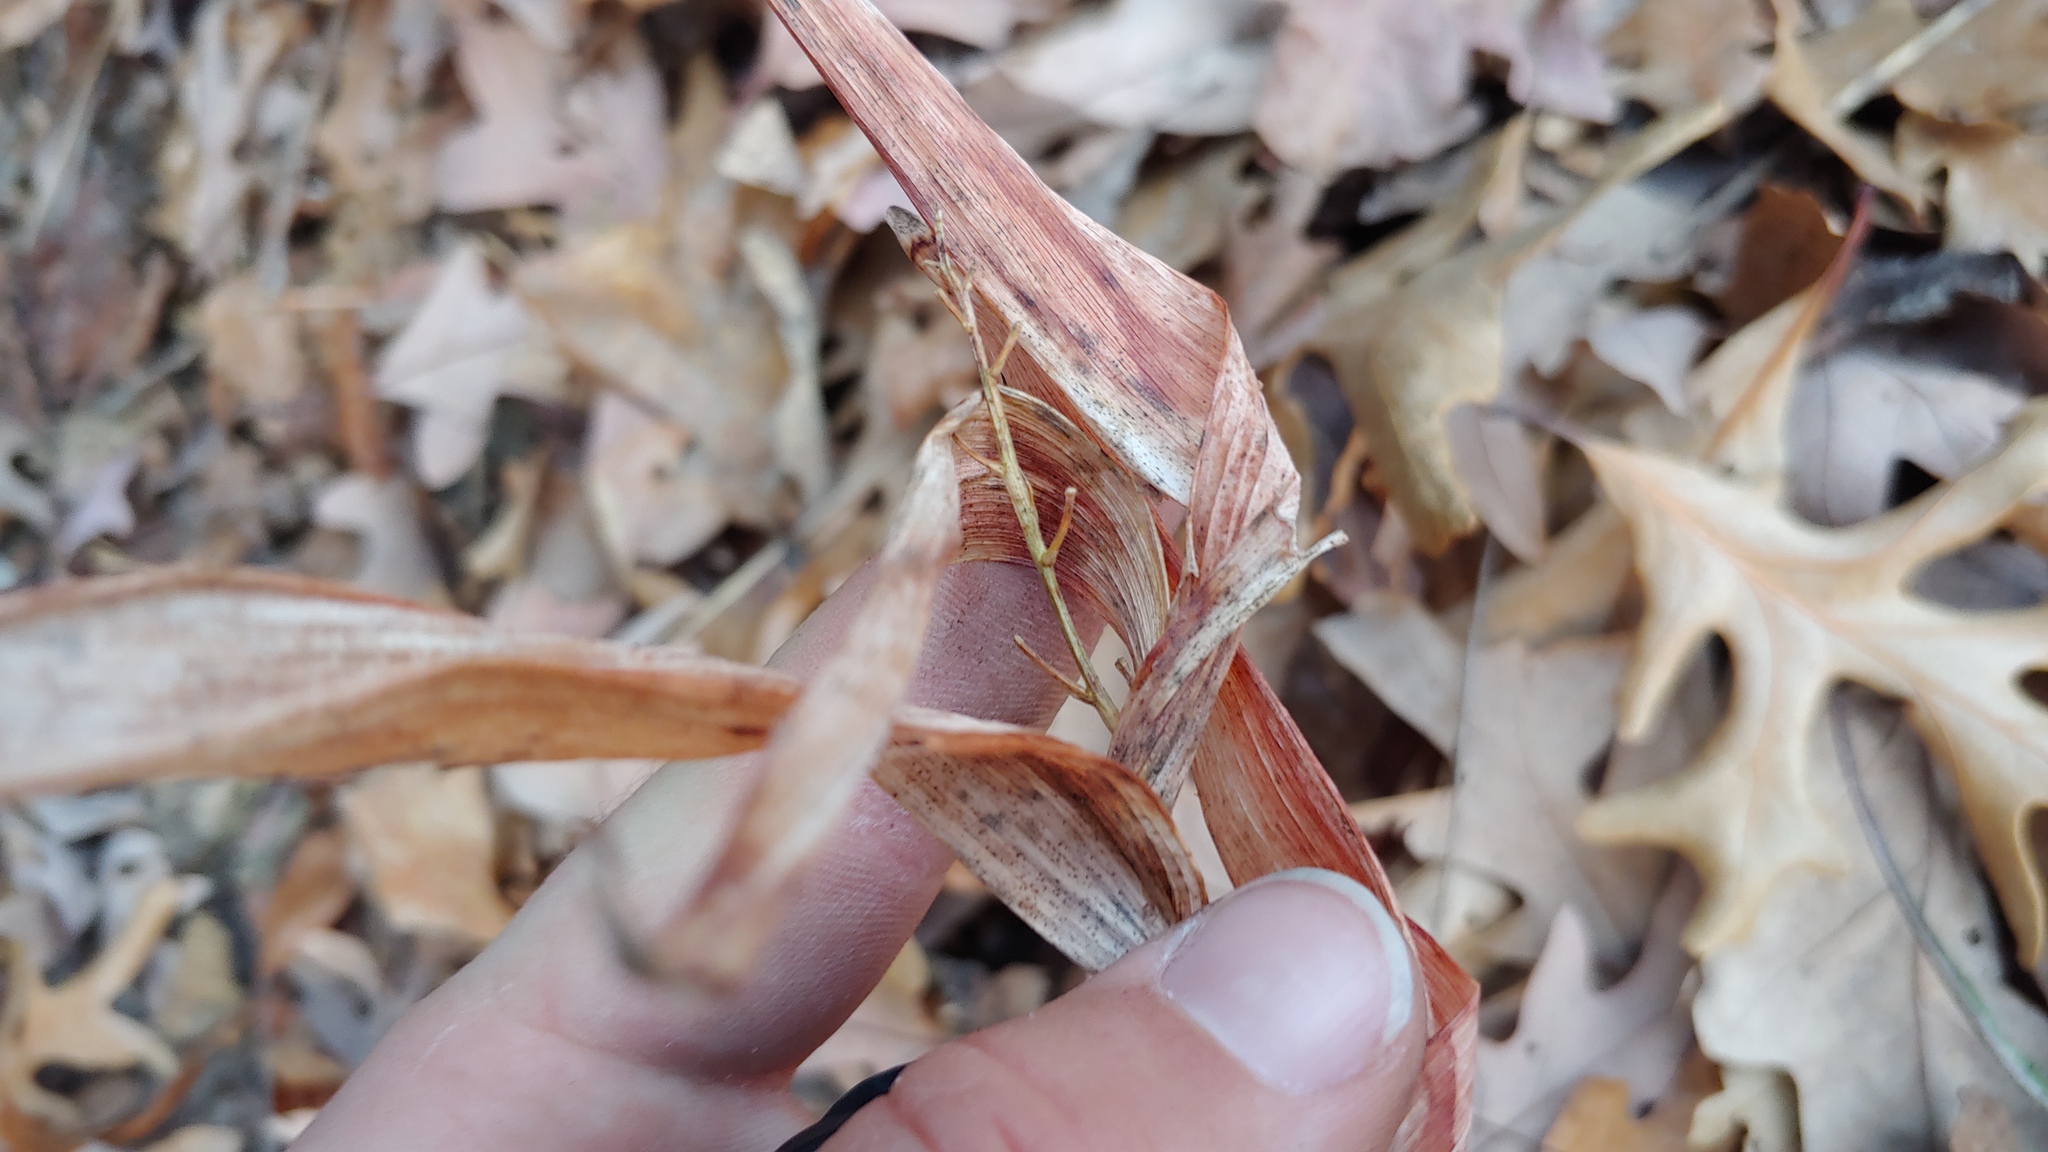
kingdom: Plantae
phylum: Tracheophyta
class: Liliopsida
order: Asparagales
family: Asparagaceae
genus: Maianthemum
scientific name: Maianthemum stellatum
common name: Little false solomon's seal
